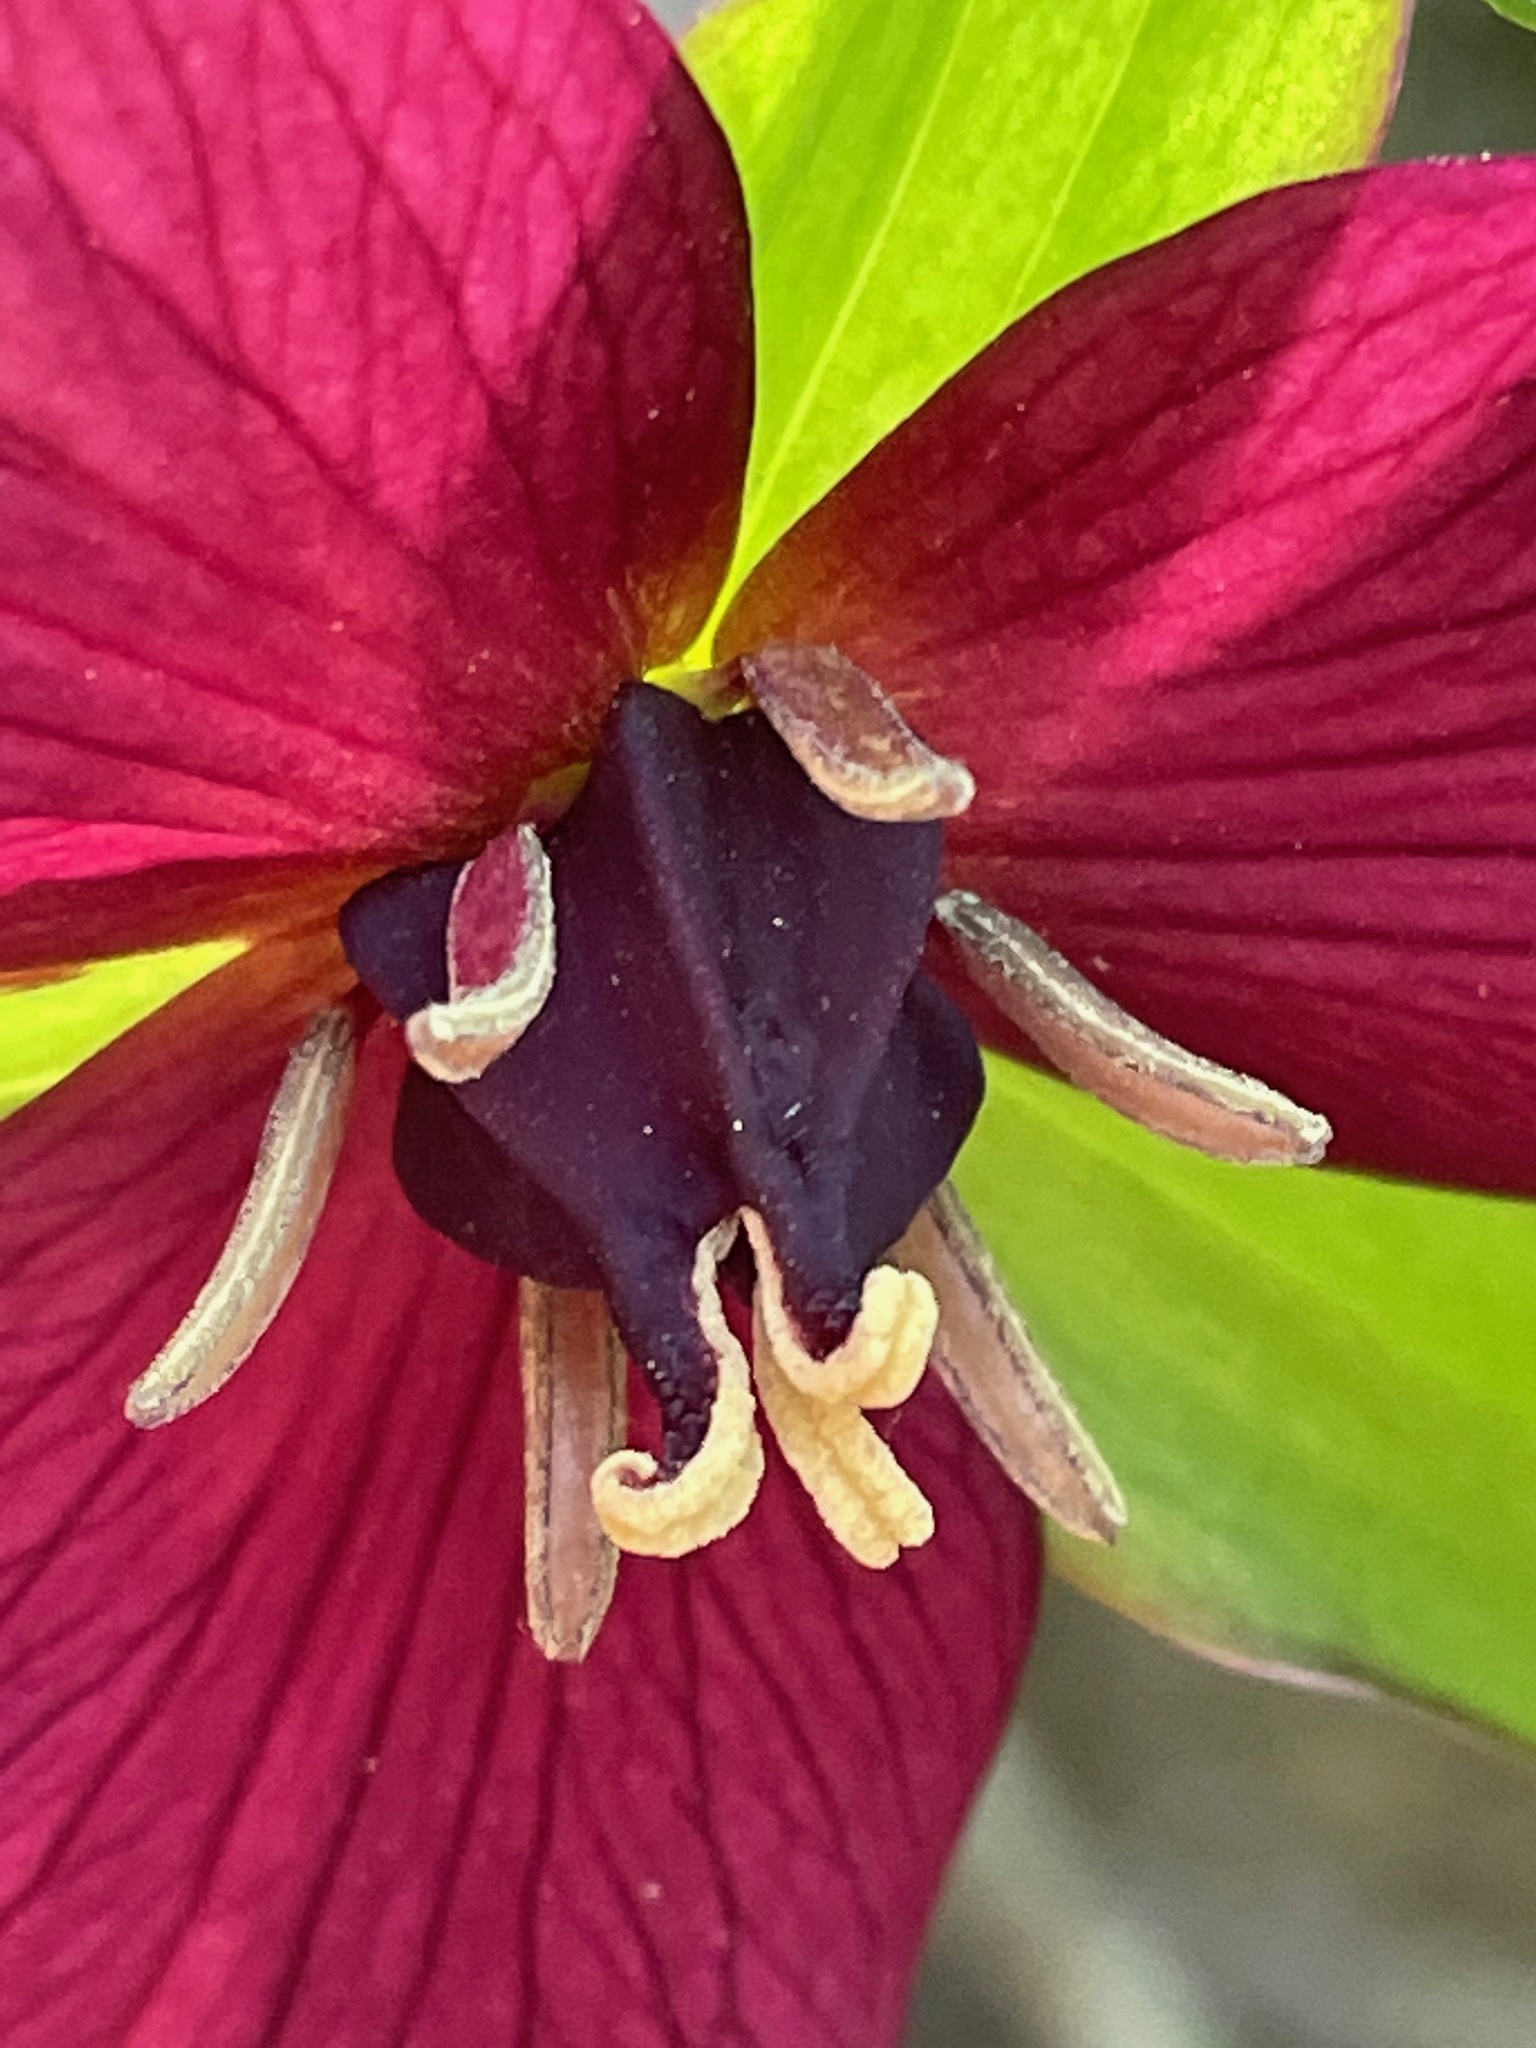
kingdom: Plantae
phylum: Tracheophyta
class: Liliopsida
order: Liliales
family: Melanthiaceae
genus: Trillium
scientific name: Trillium erectum
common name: Purple trillium
